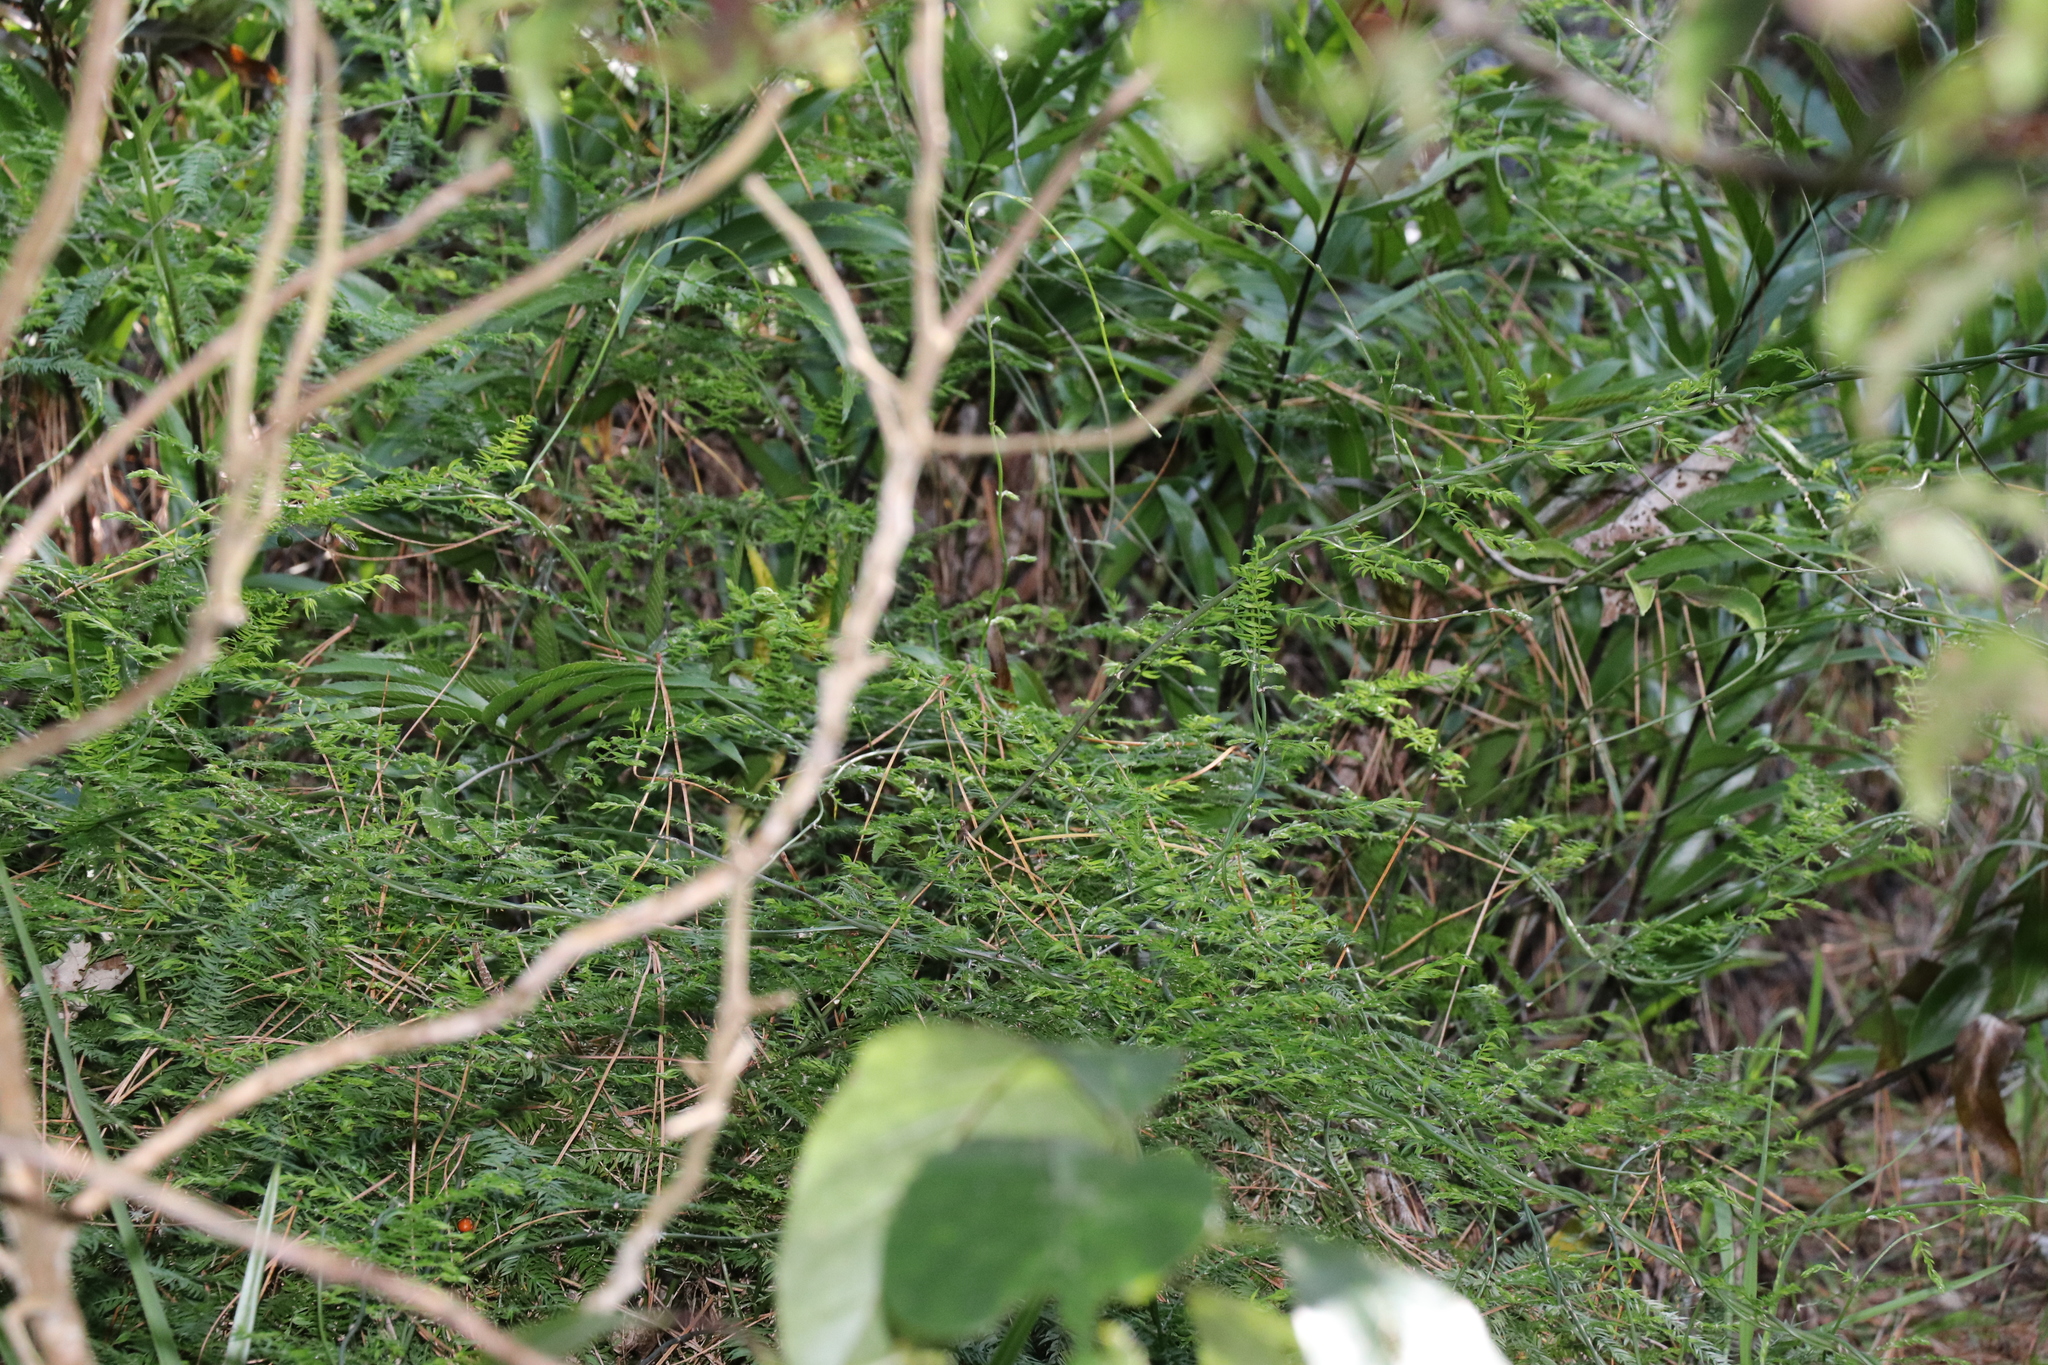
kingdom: Plantae
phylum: Tracheophyta
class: Liliopsida
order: Asparagales
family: Asparagaceae
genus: Asparagus
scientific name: Asparagus scandens
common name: Asparagus-fern
